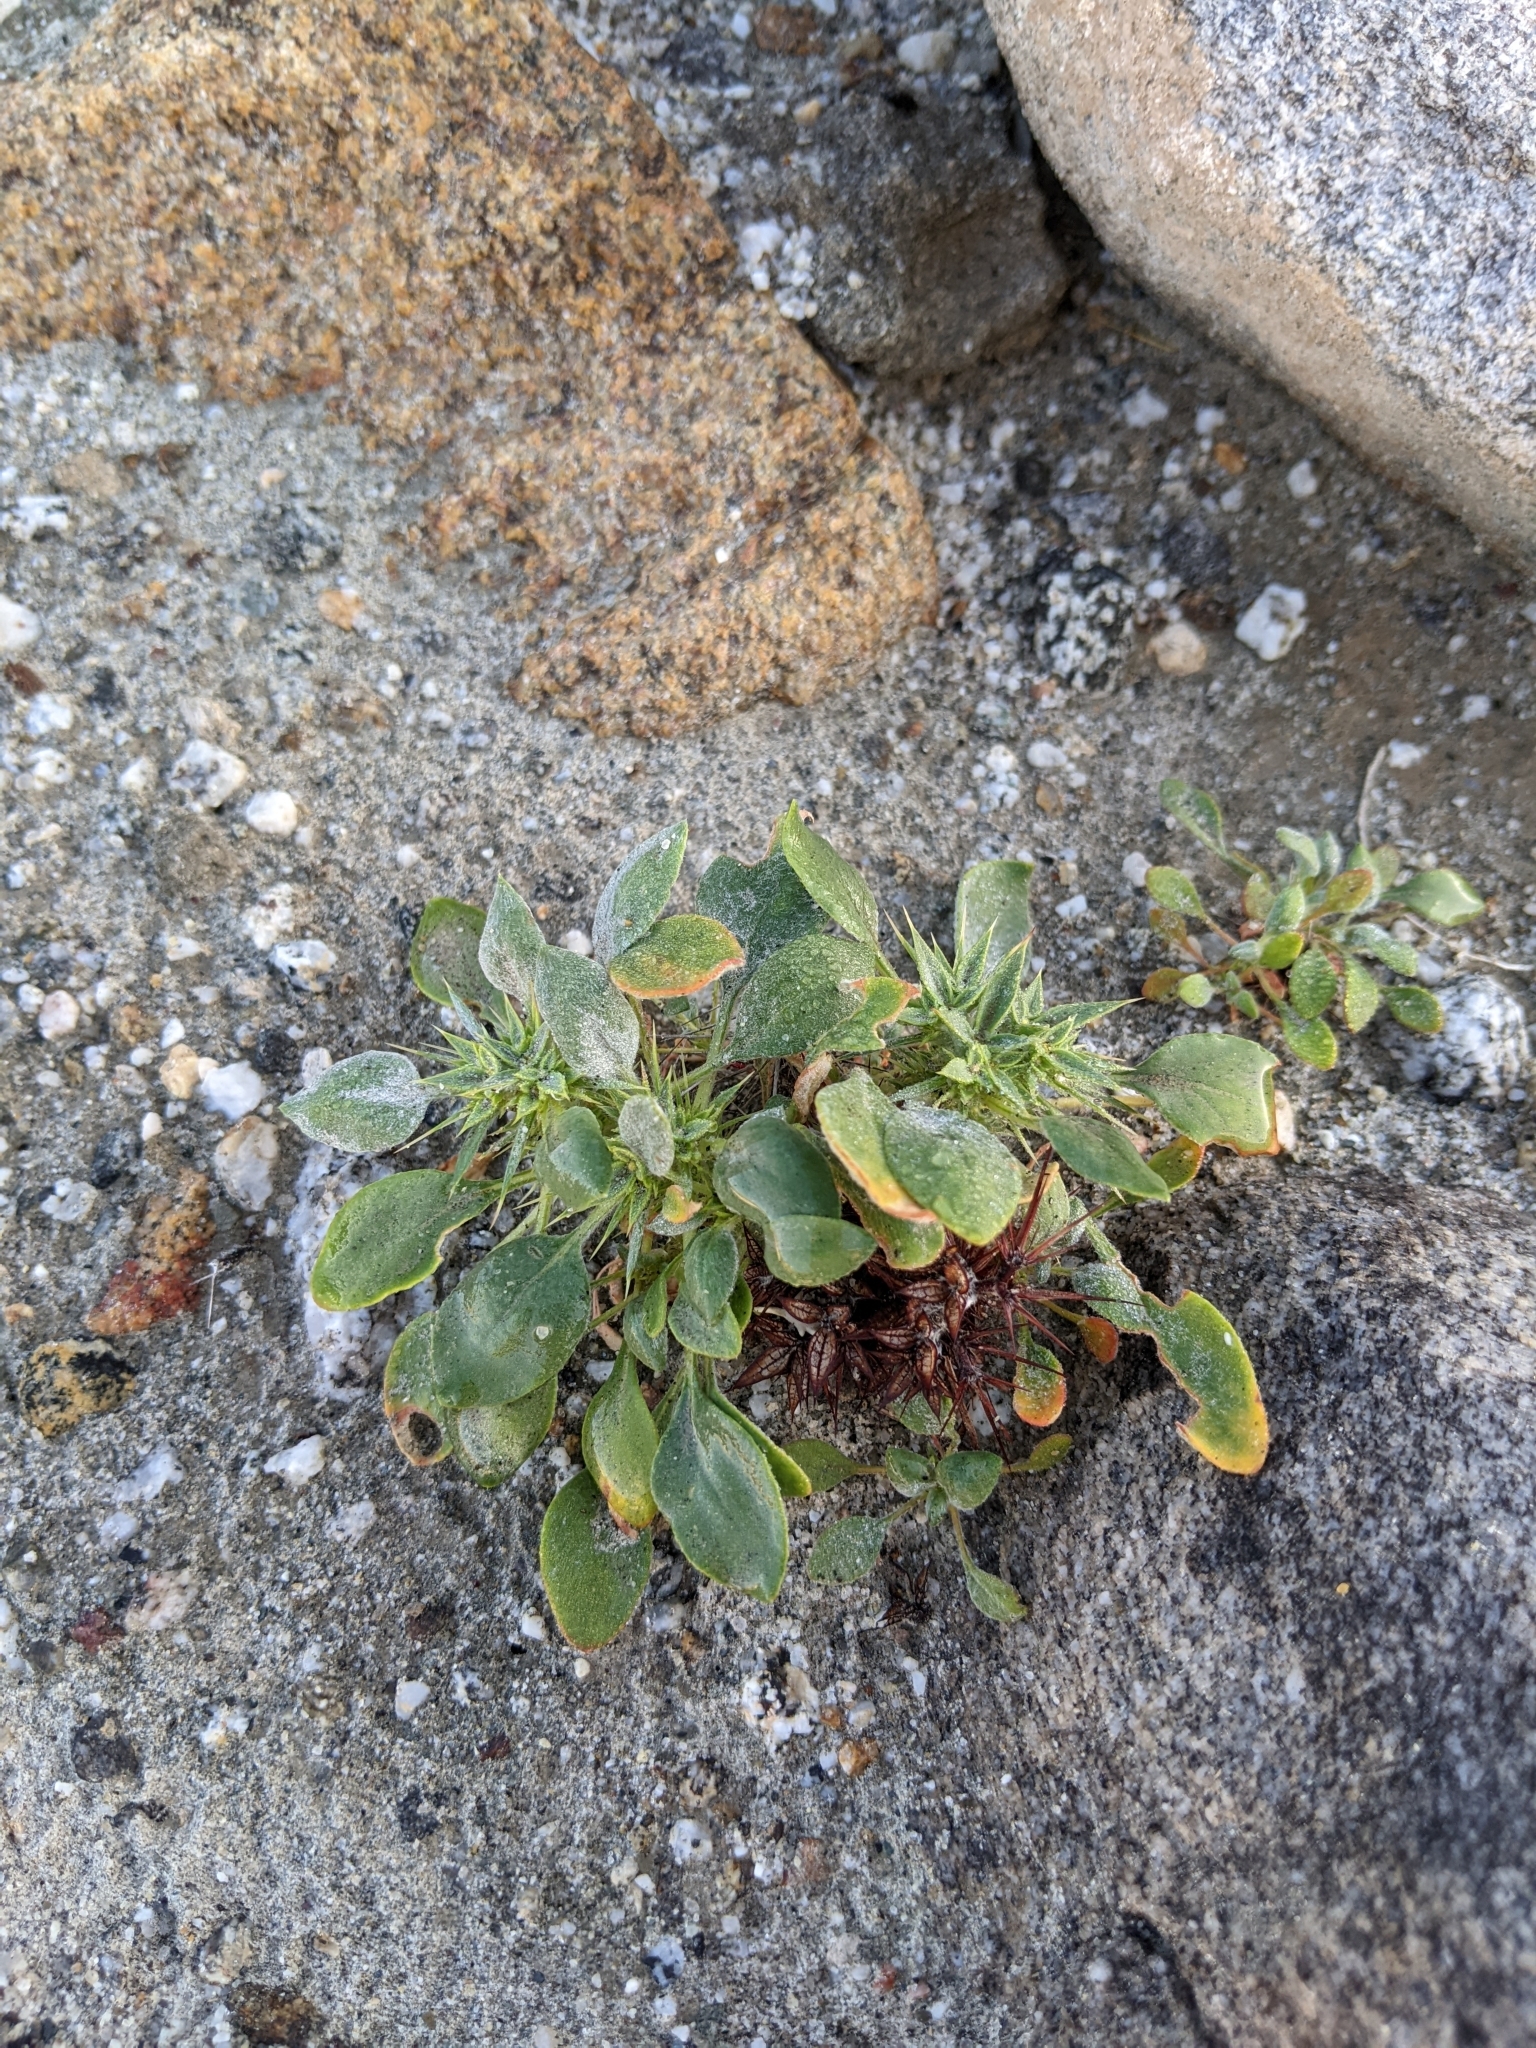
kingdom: Plantae
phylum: Tracheophyta
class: Magnoliopsida
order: Caryophyllales
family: Polygonaceae
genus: Chorizanthe
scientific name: Chorizanthe rigida
